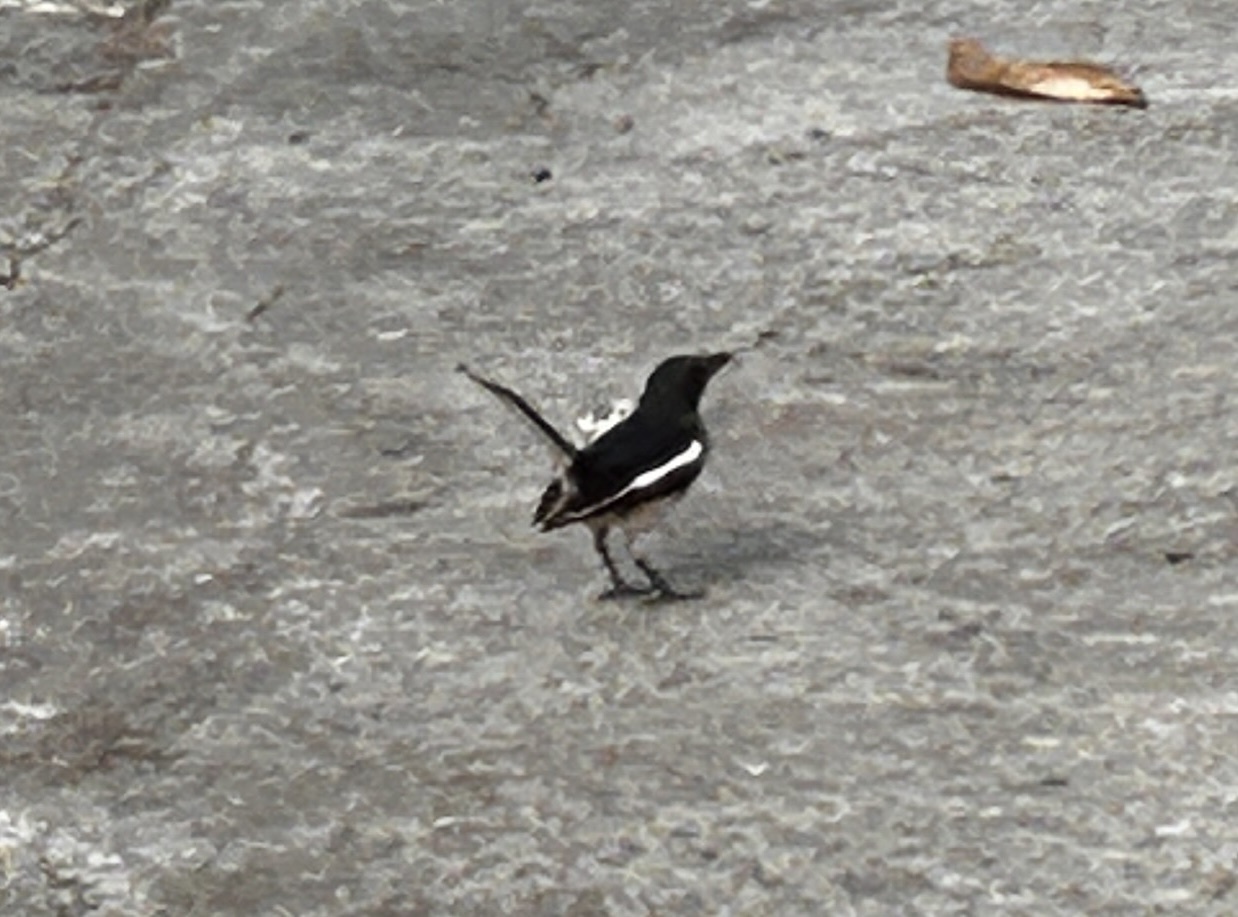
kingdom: Animalia
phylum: Chordata
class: Aves
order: Passeriformes
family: Muscicapidae
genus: Copsychus
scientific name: Copsychus saularis
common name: Oriental magpie-robin
